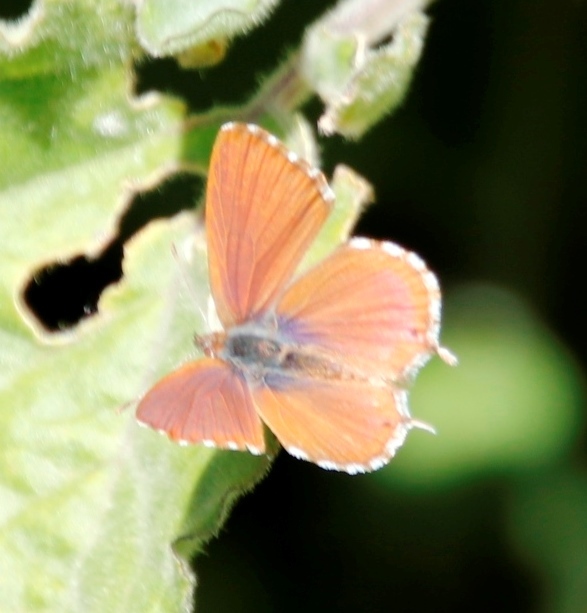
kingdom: Animalia
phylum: Arthropoda
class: Insecta
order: Lepidoptera
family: Lycaenidae
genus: Cacyreus
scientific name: Cacyreus fracta
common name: Water bronze
